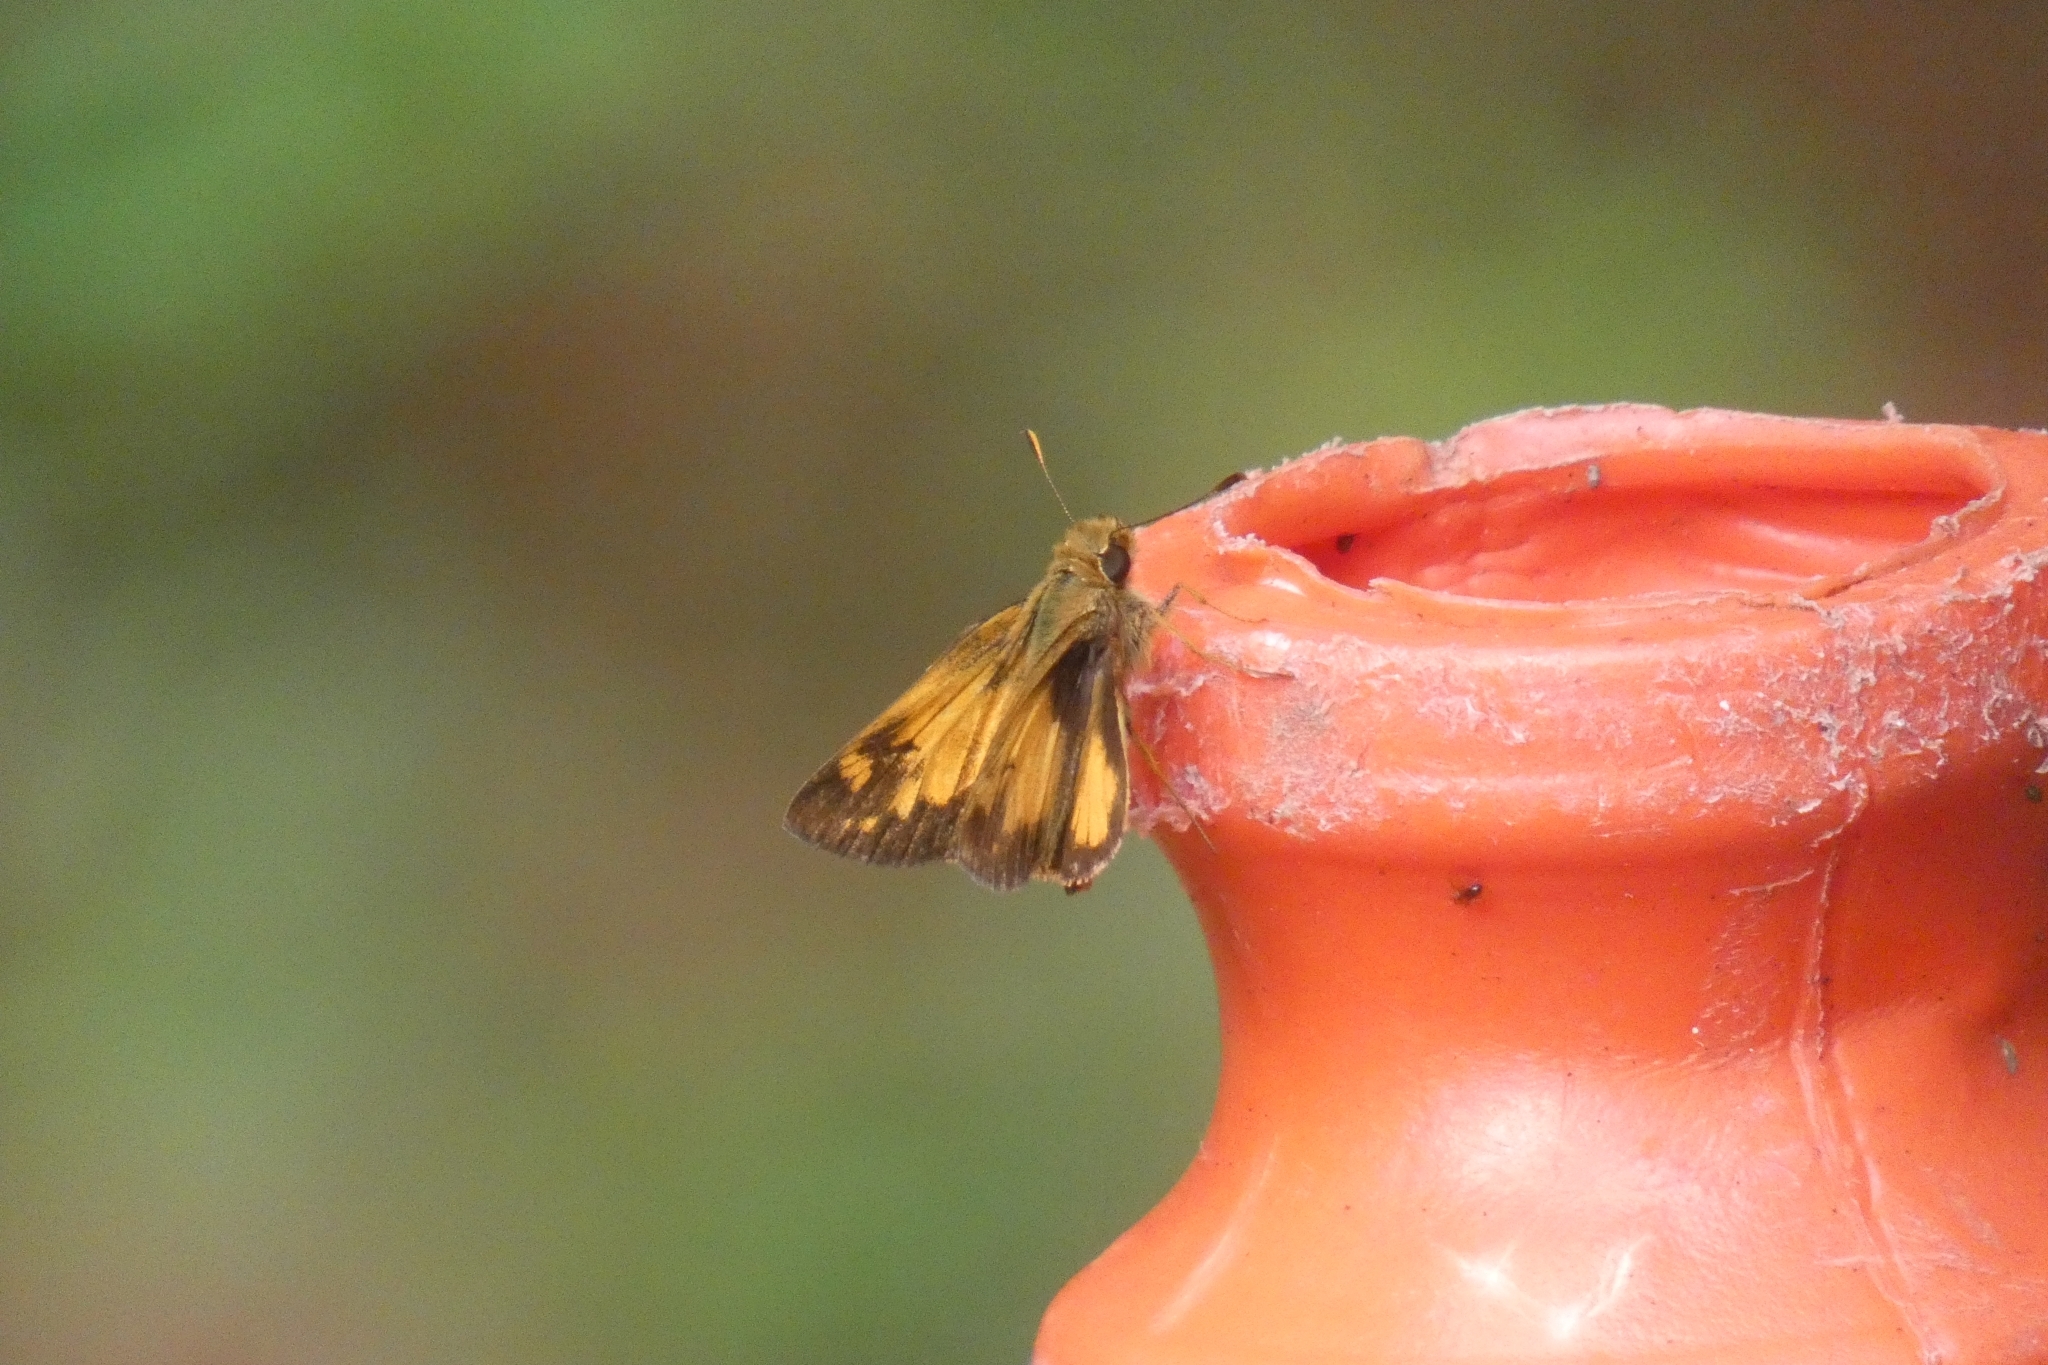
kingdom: Animalia
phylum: Arthropoda
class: Insecta
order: Lepidoptera
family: Hesperiidae
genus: Lon
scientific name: Lon zabulon
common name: Zabulon skipper
